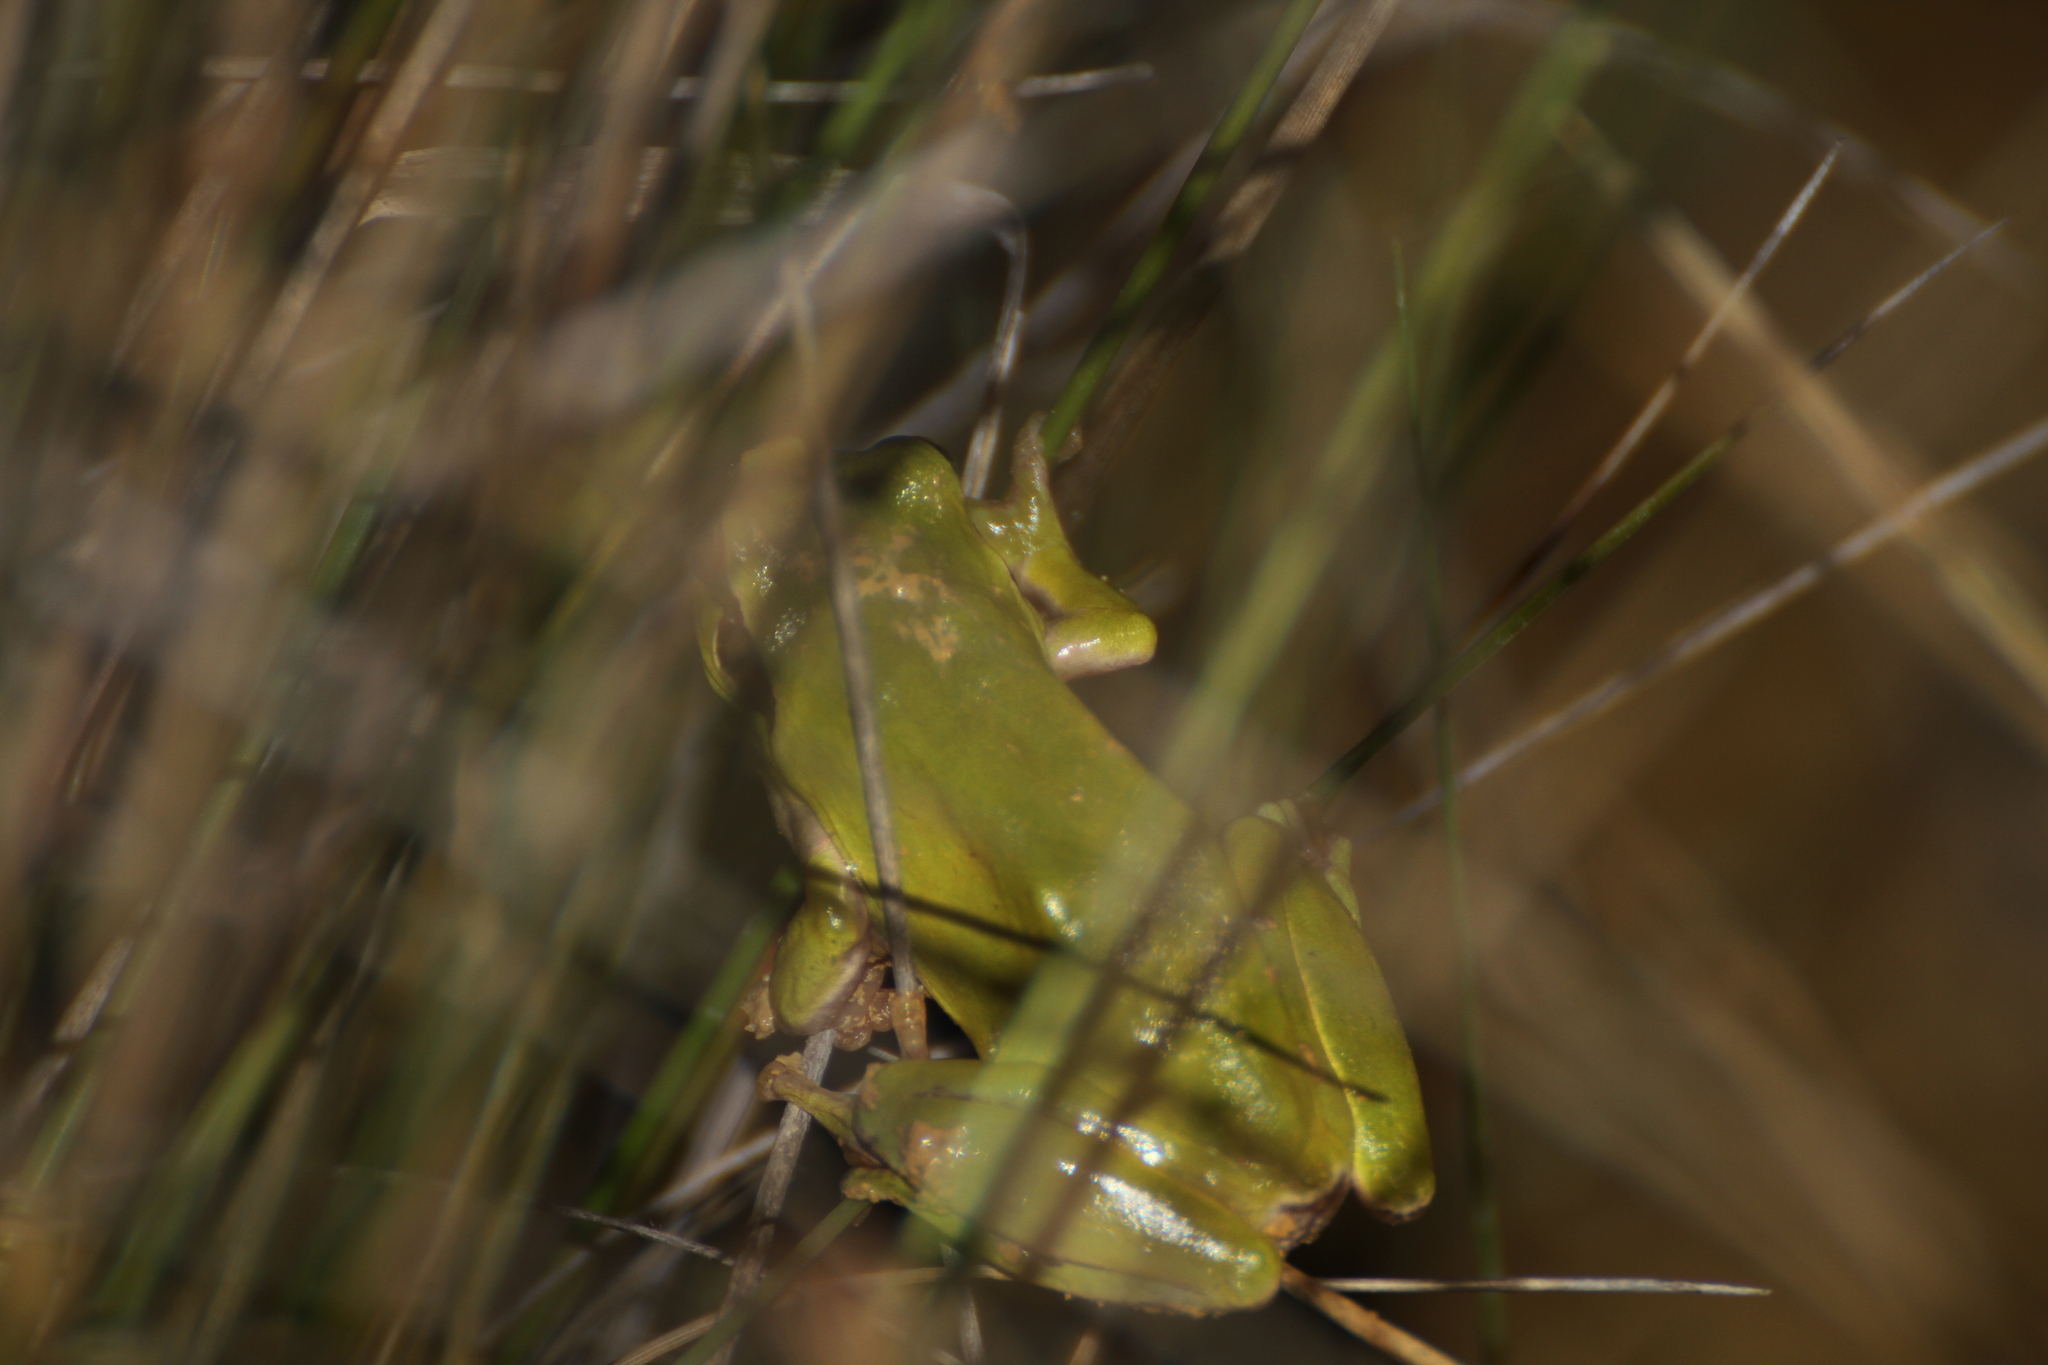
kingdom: Animalia
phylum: Chordata
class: Amphibia
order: Anura
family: Hylidae
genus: Hyla
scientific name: Hyla meridionalis
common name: Stripeless tree frog
